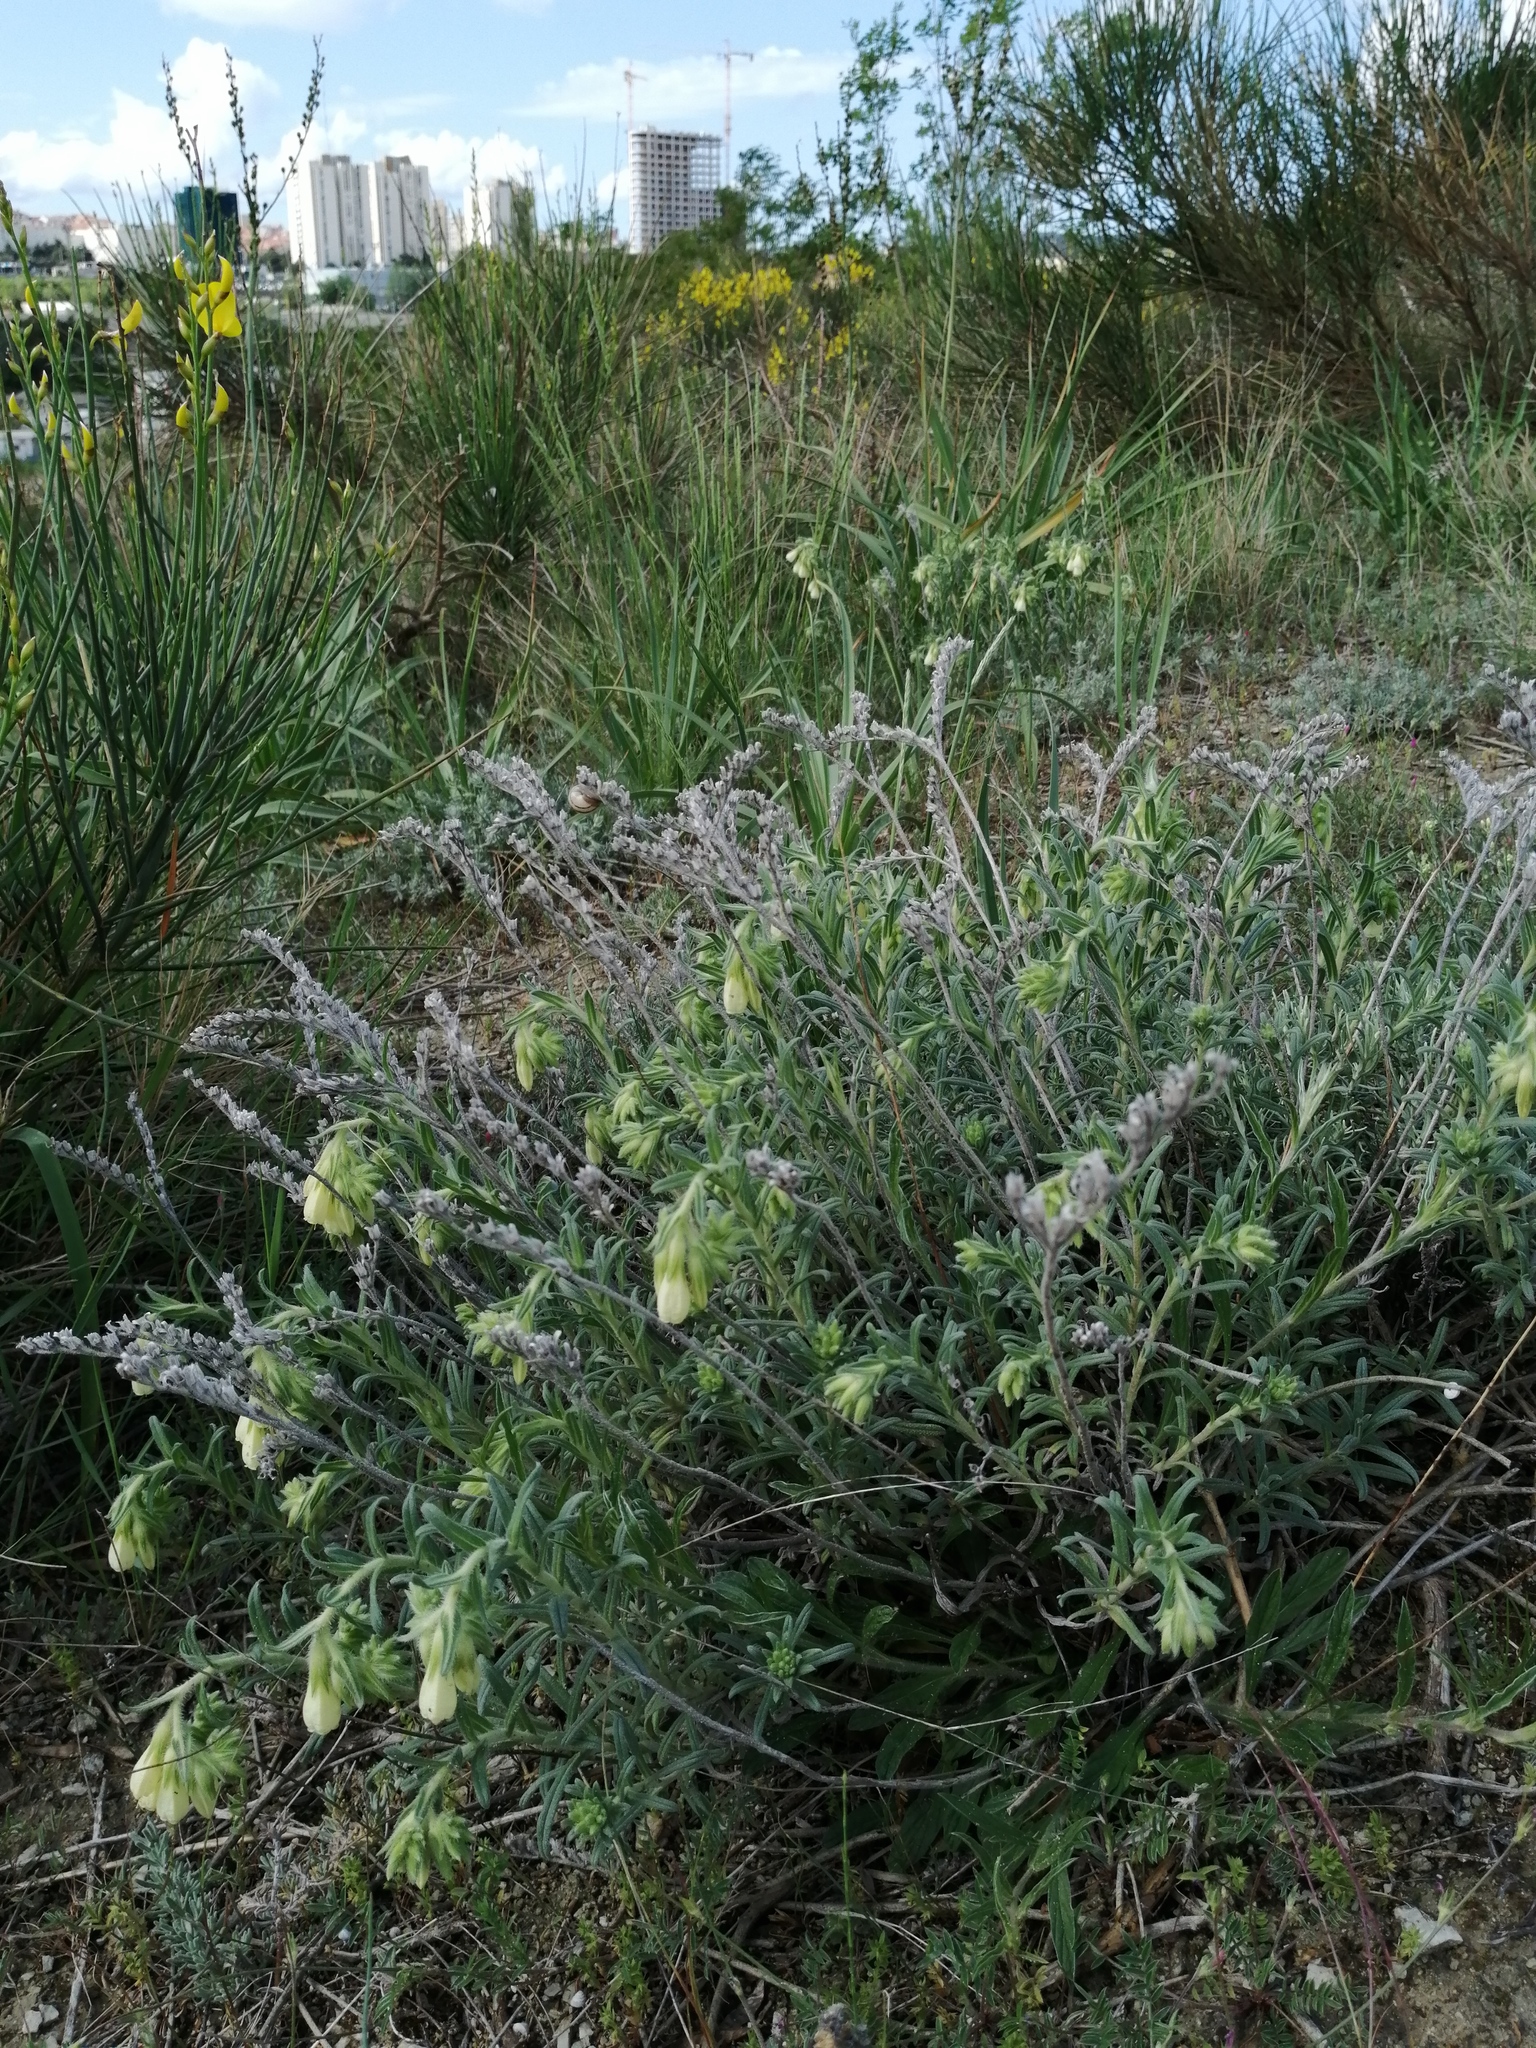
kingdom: Plantae
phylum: Tracheophyta
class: Magnoliopsida
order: Boraginales
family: Boraginaceae
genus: Onosma
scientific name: Onosma echioides
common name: Goldendrop
